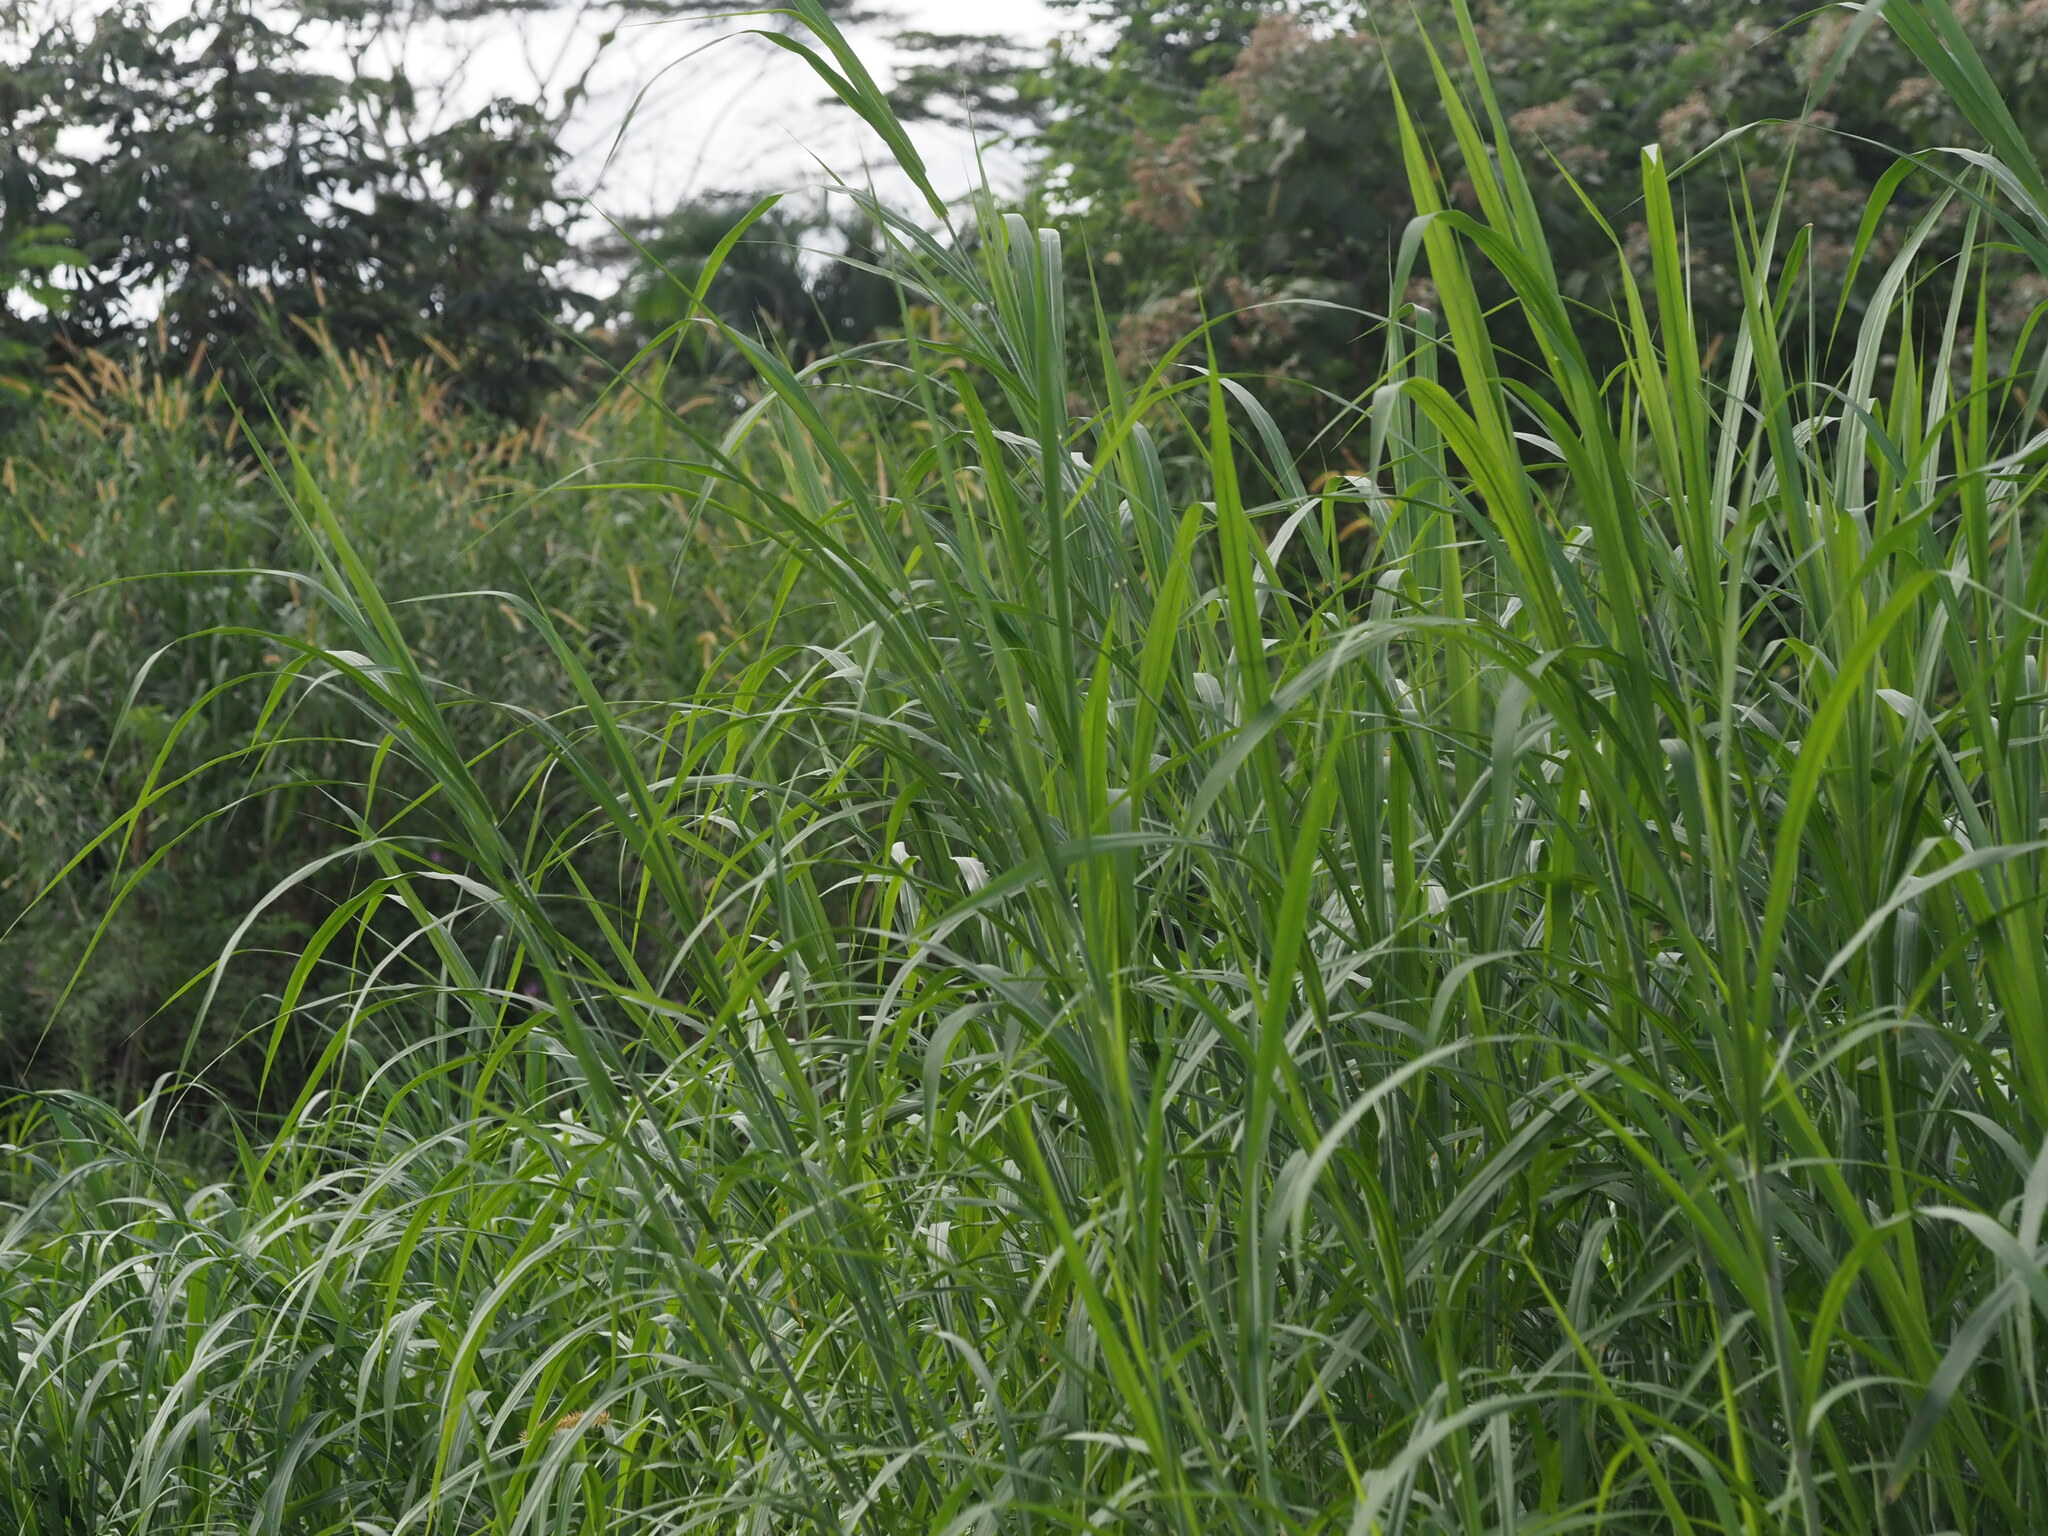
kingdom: Plantae
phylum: Tracheophyta
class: Liliopsida
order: Poales
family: Poaceae
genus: Cenchrus
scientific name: Cenchrus purpureus
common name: Elephant grass
